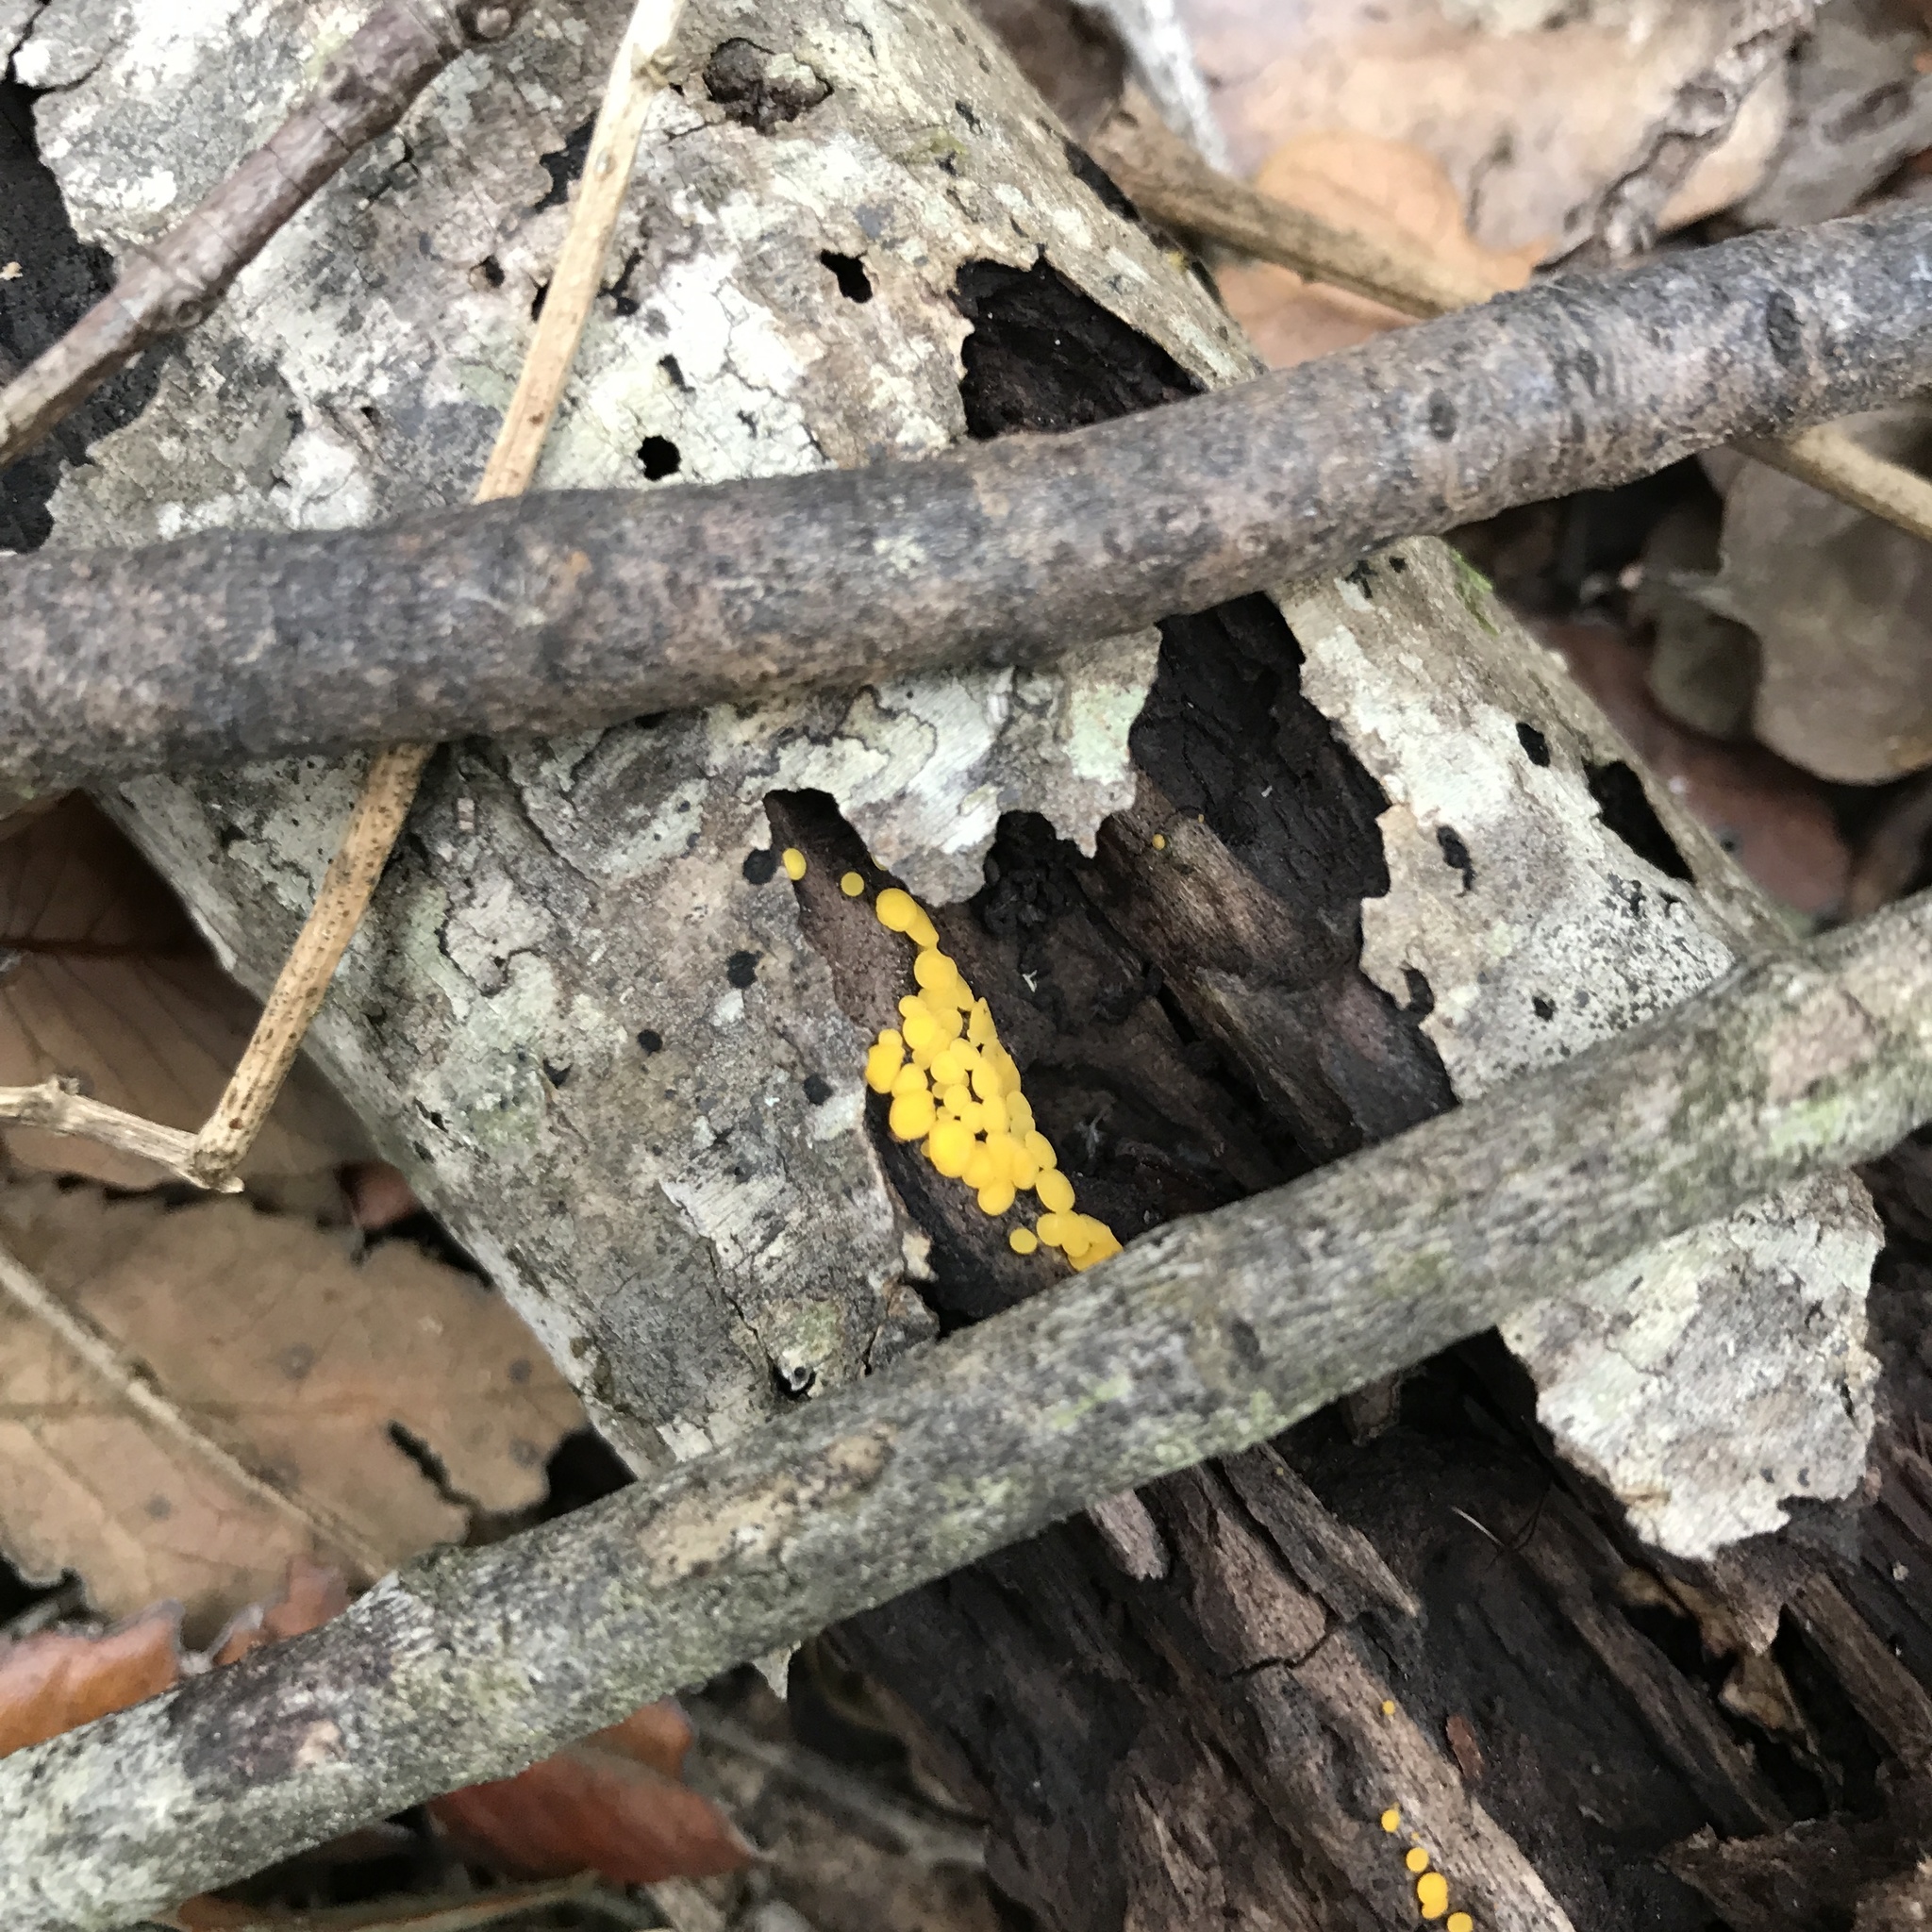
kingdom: Fungi
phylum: Ascomycota
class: Leotiomycetes
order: Helotiales
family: Pezizellaceae
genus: Calycina
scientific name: Calycina citrina
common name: Yellow fairy cups
